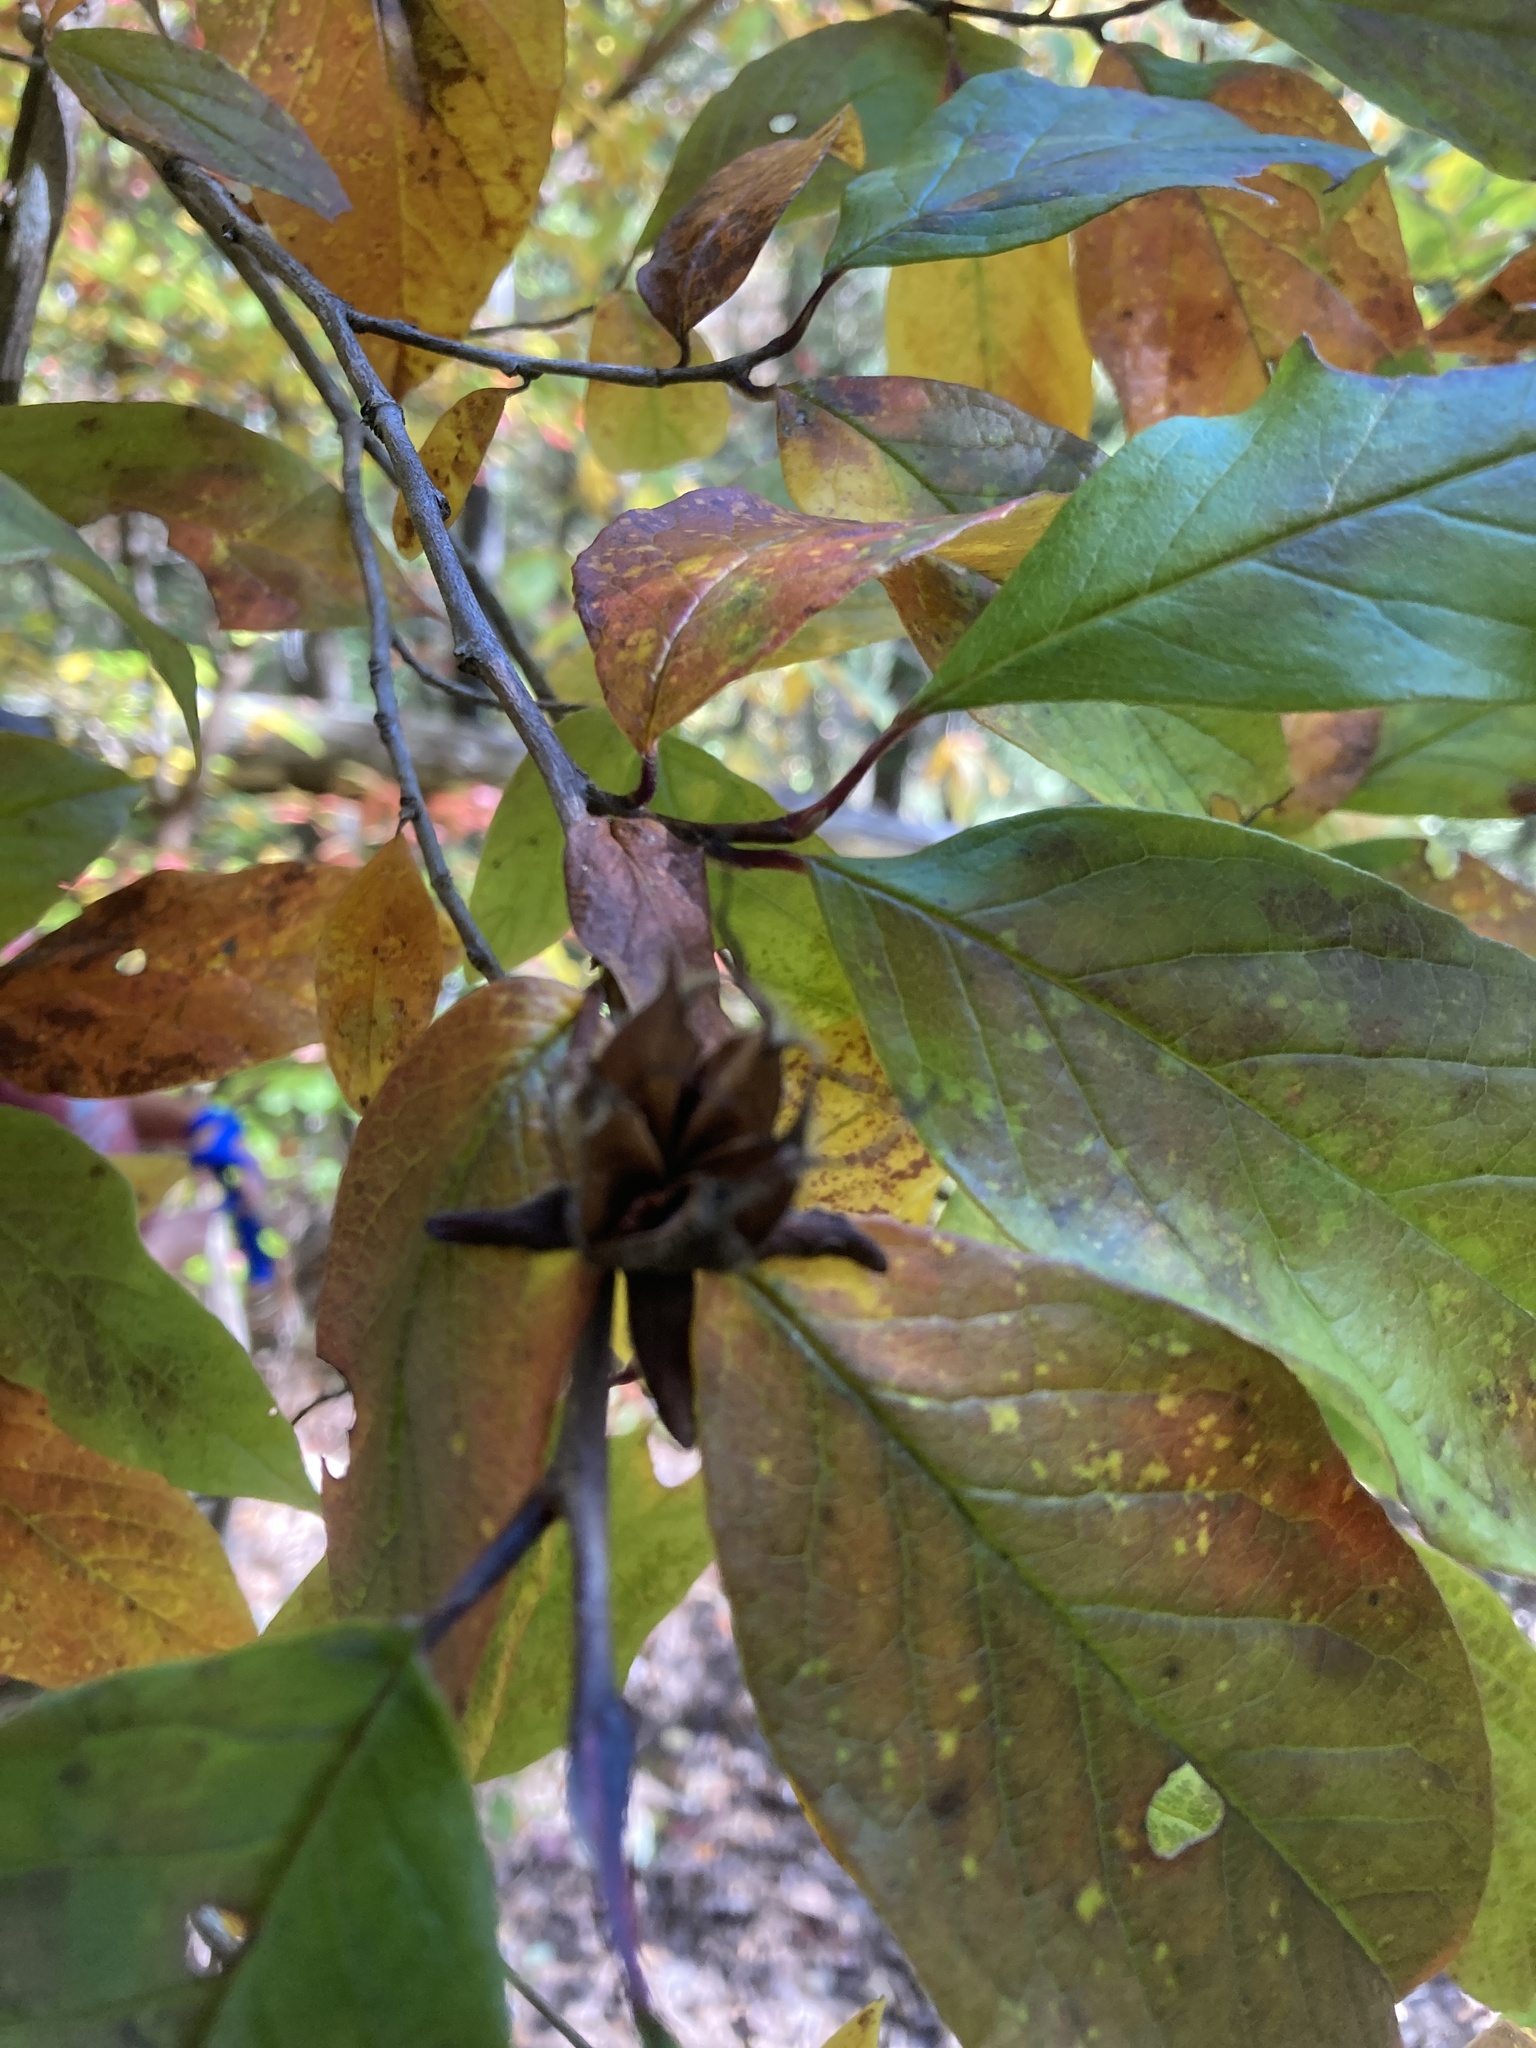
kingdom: Plantae
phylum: Tracheophyta
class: Magnoliopsida
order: Ericales
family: Theaceae
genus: Stewartia
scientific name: Stewartia ovata
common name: Mountain camellia
